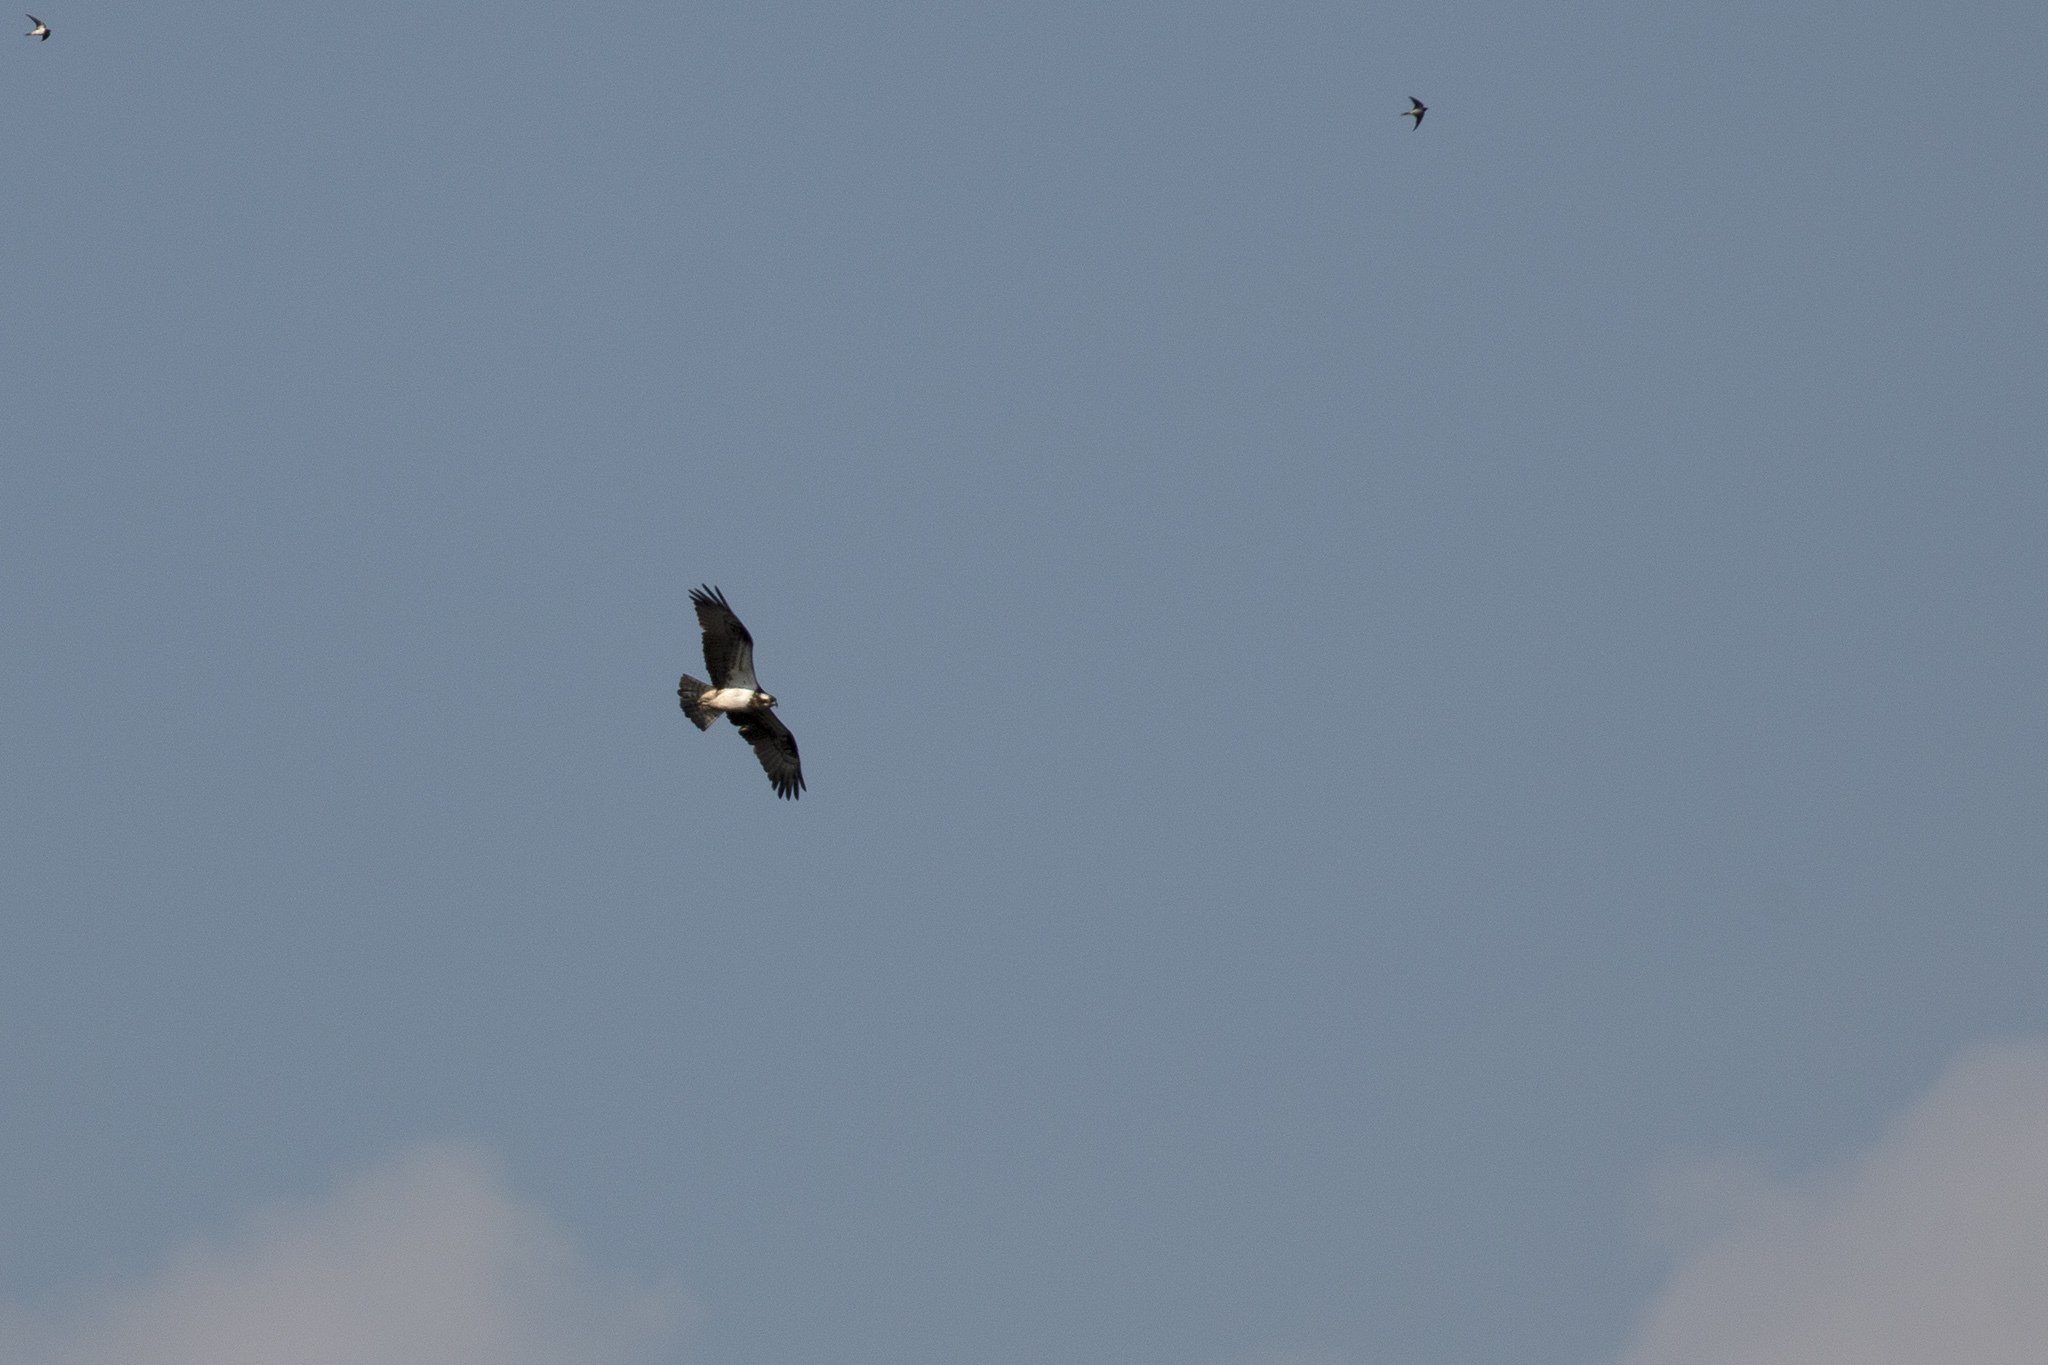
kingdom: Animalia
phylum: Chordata
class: Aves
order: Accipitriformes
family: Pandionidae
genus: Pandion
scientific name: Pandion haliaetus
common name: Osprey
